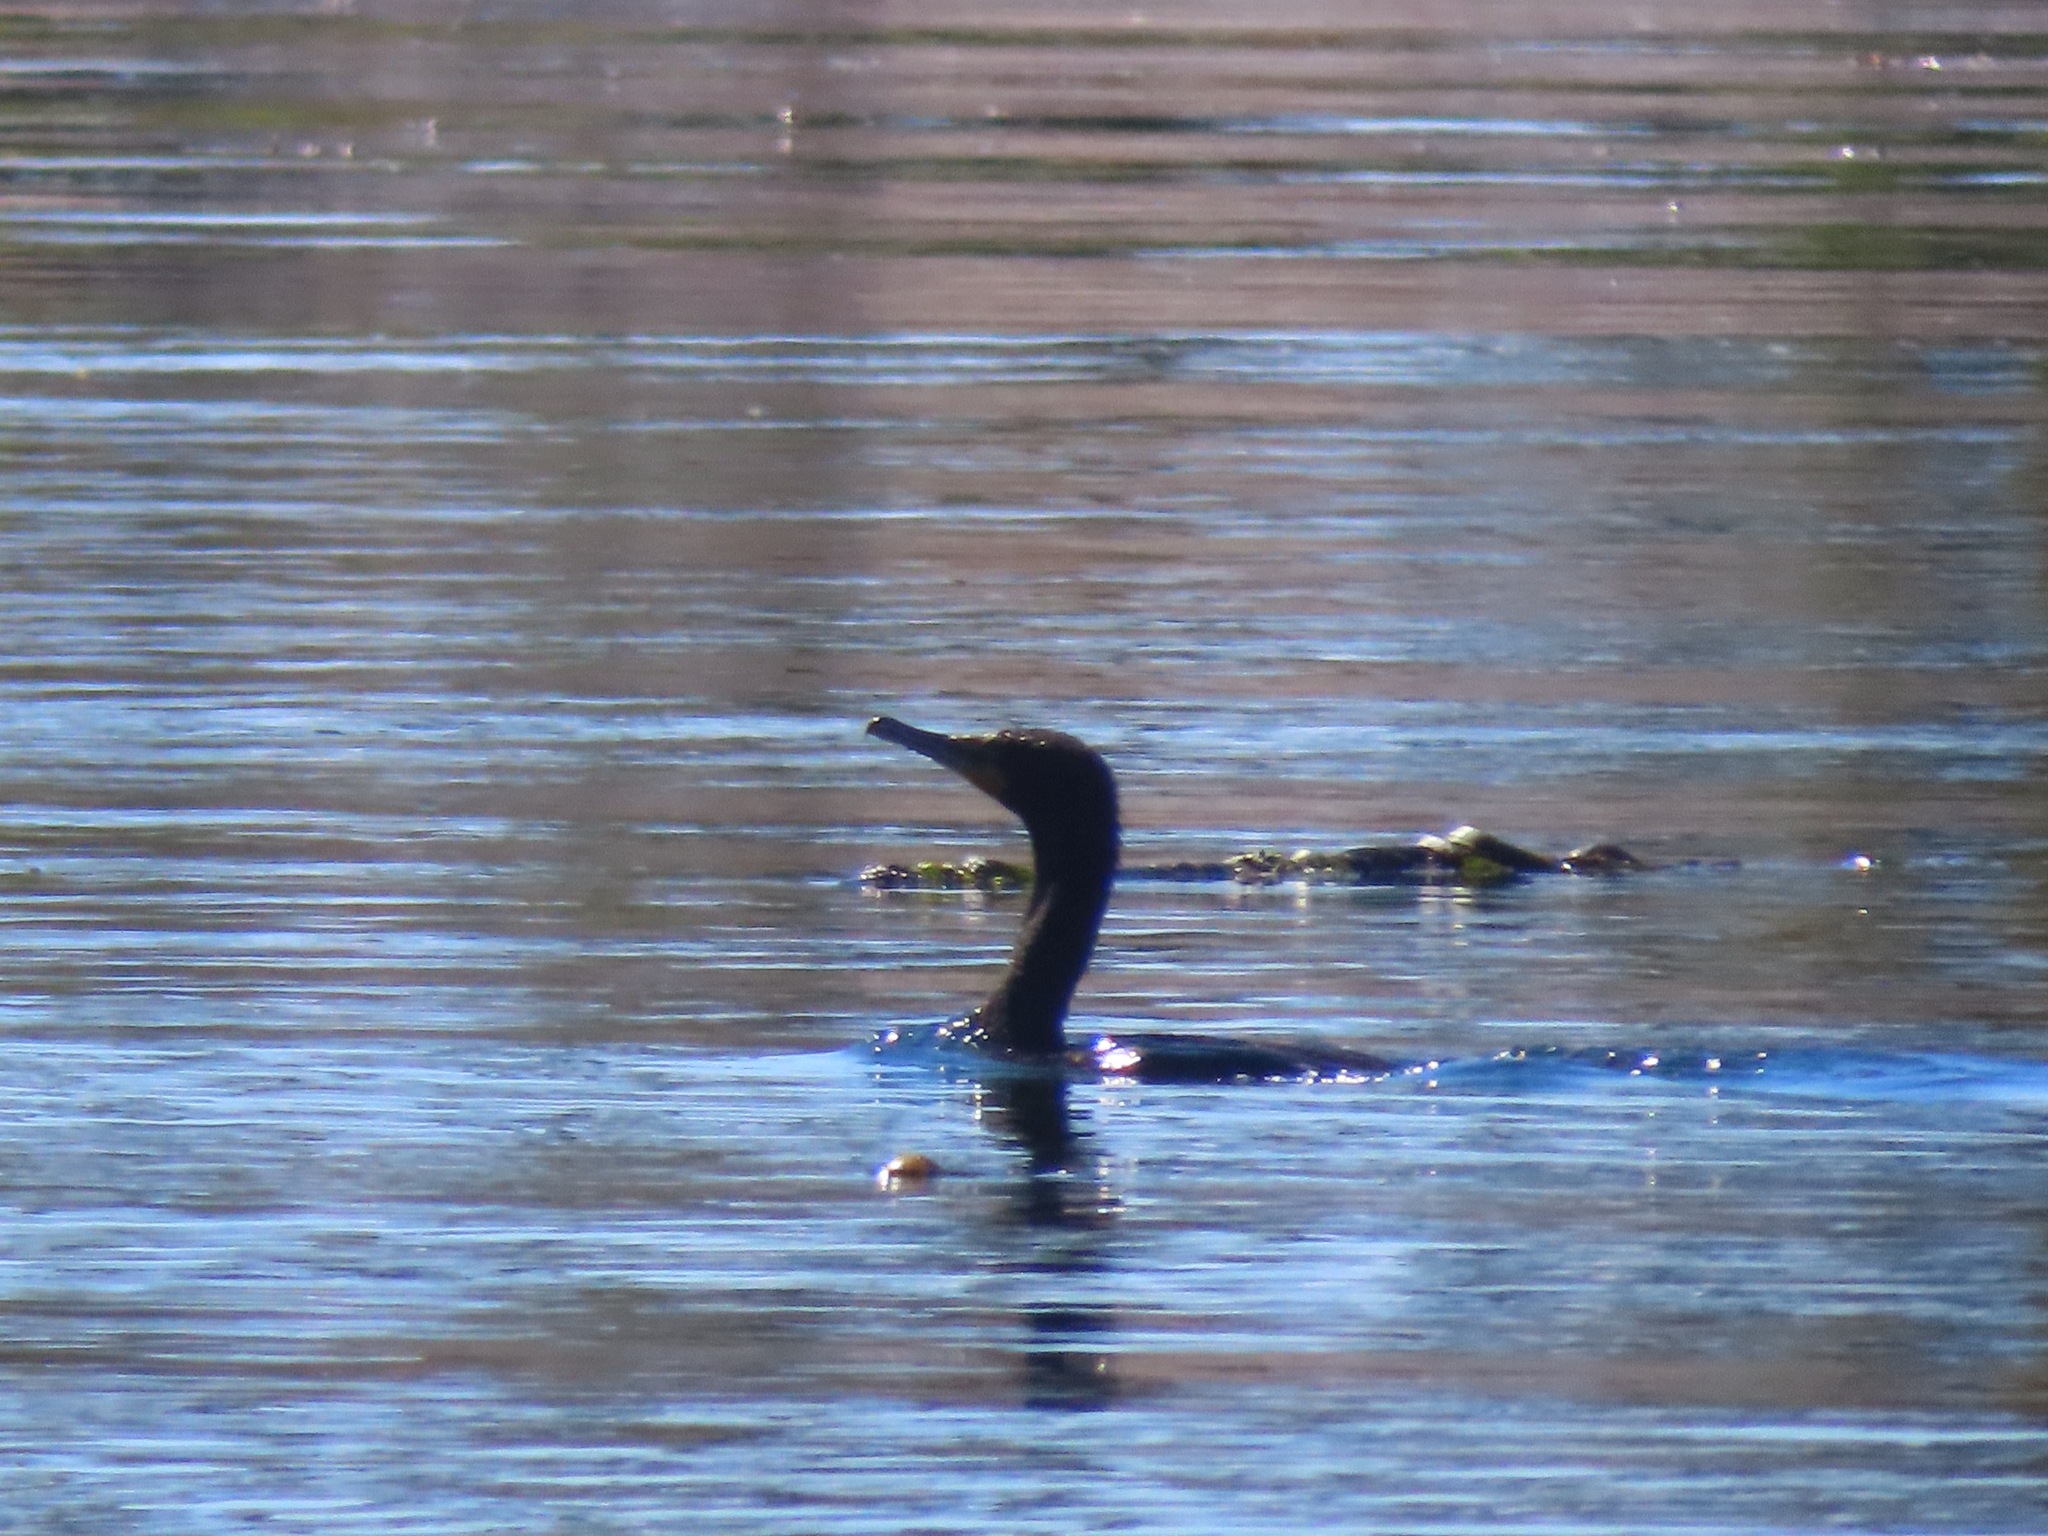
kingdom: Animalia
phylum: Chordata
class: Aves
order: Suliformes
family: Phalacrocoracidae
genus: Phalacrocorax
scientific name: Phalacrocorax auritus
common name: Double-crested cormorant
